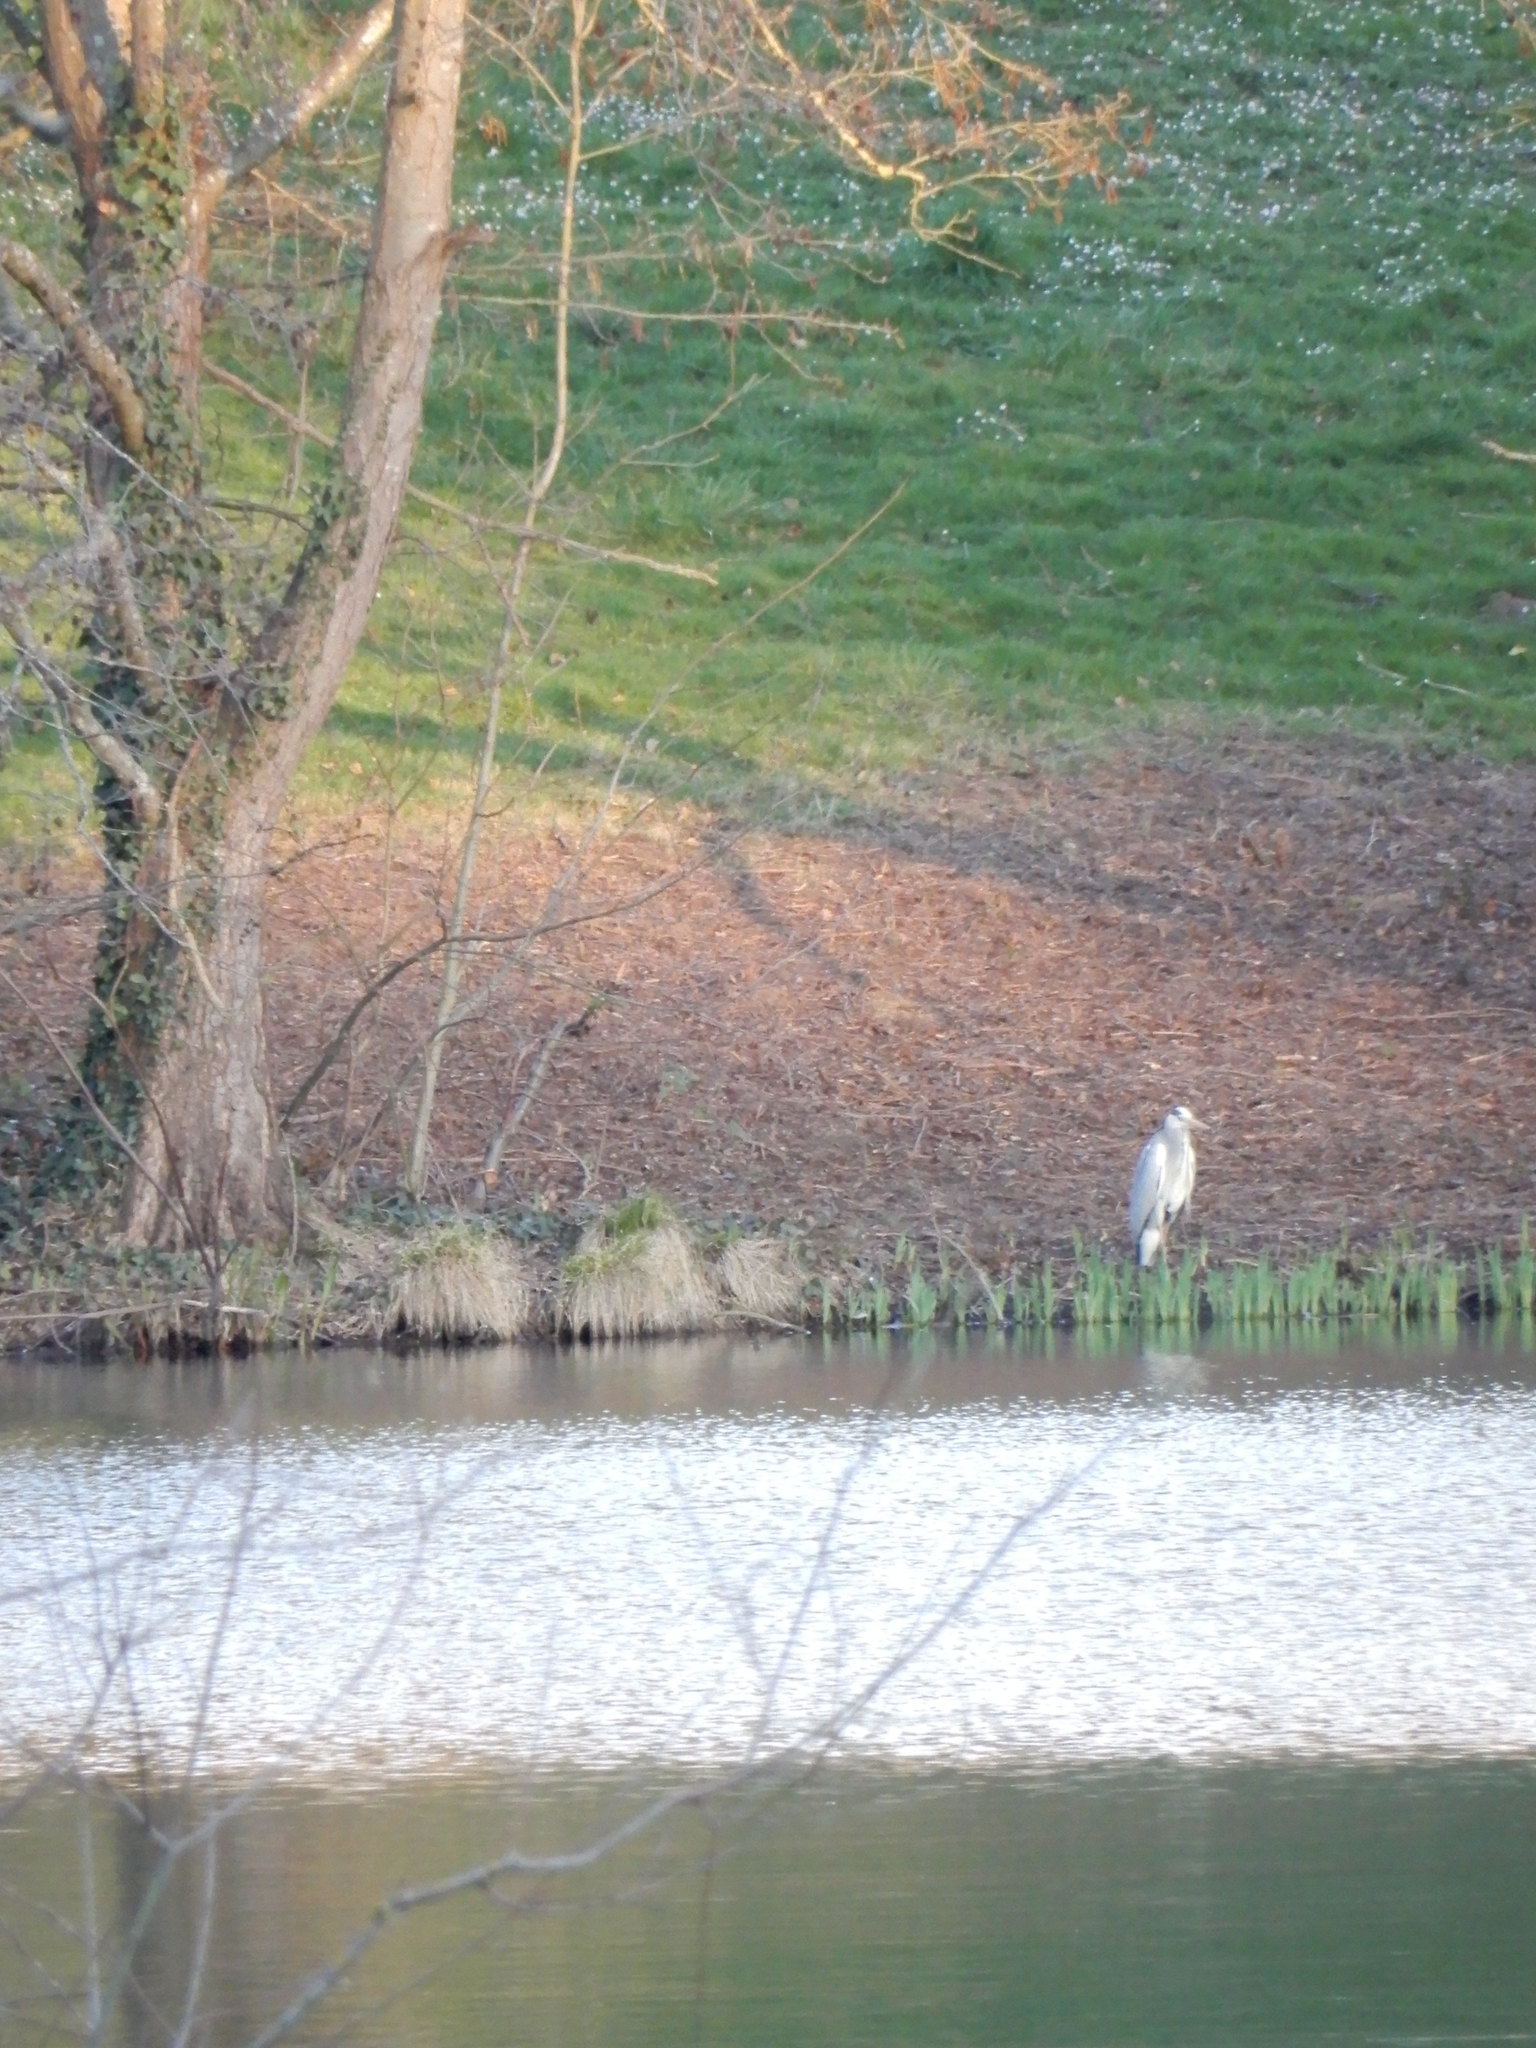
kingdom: Animalia
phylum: Chordata
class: Aves
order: Pelecaniformes
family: Ardeidae
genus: Ardea
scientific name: Ardea cinerea
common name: Grey heron
